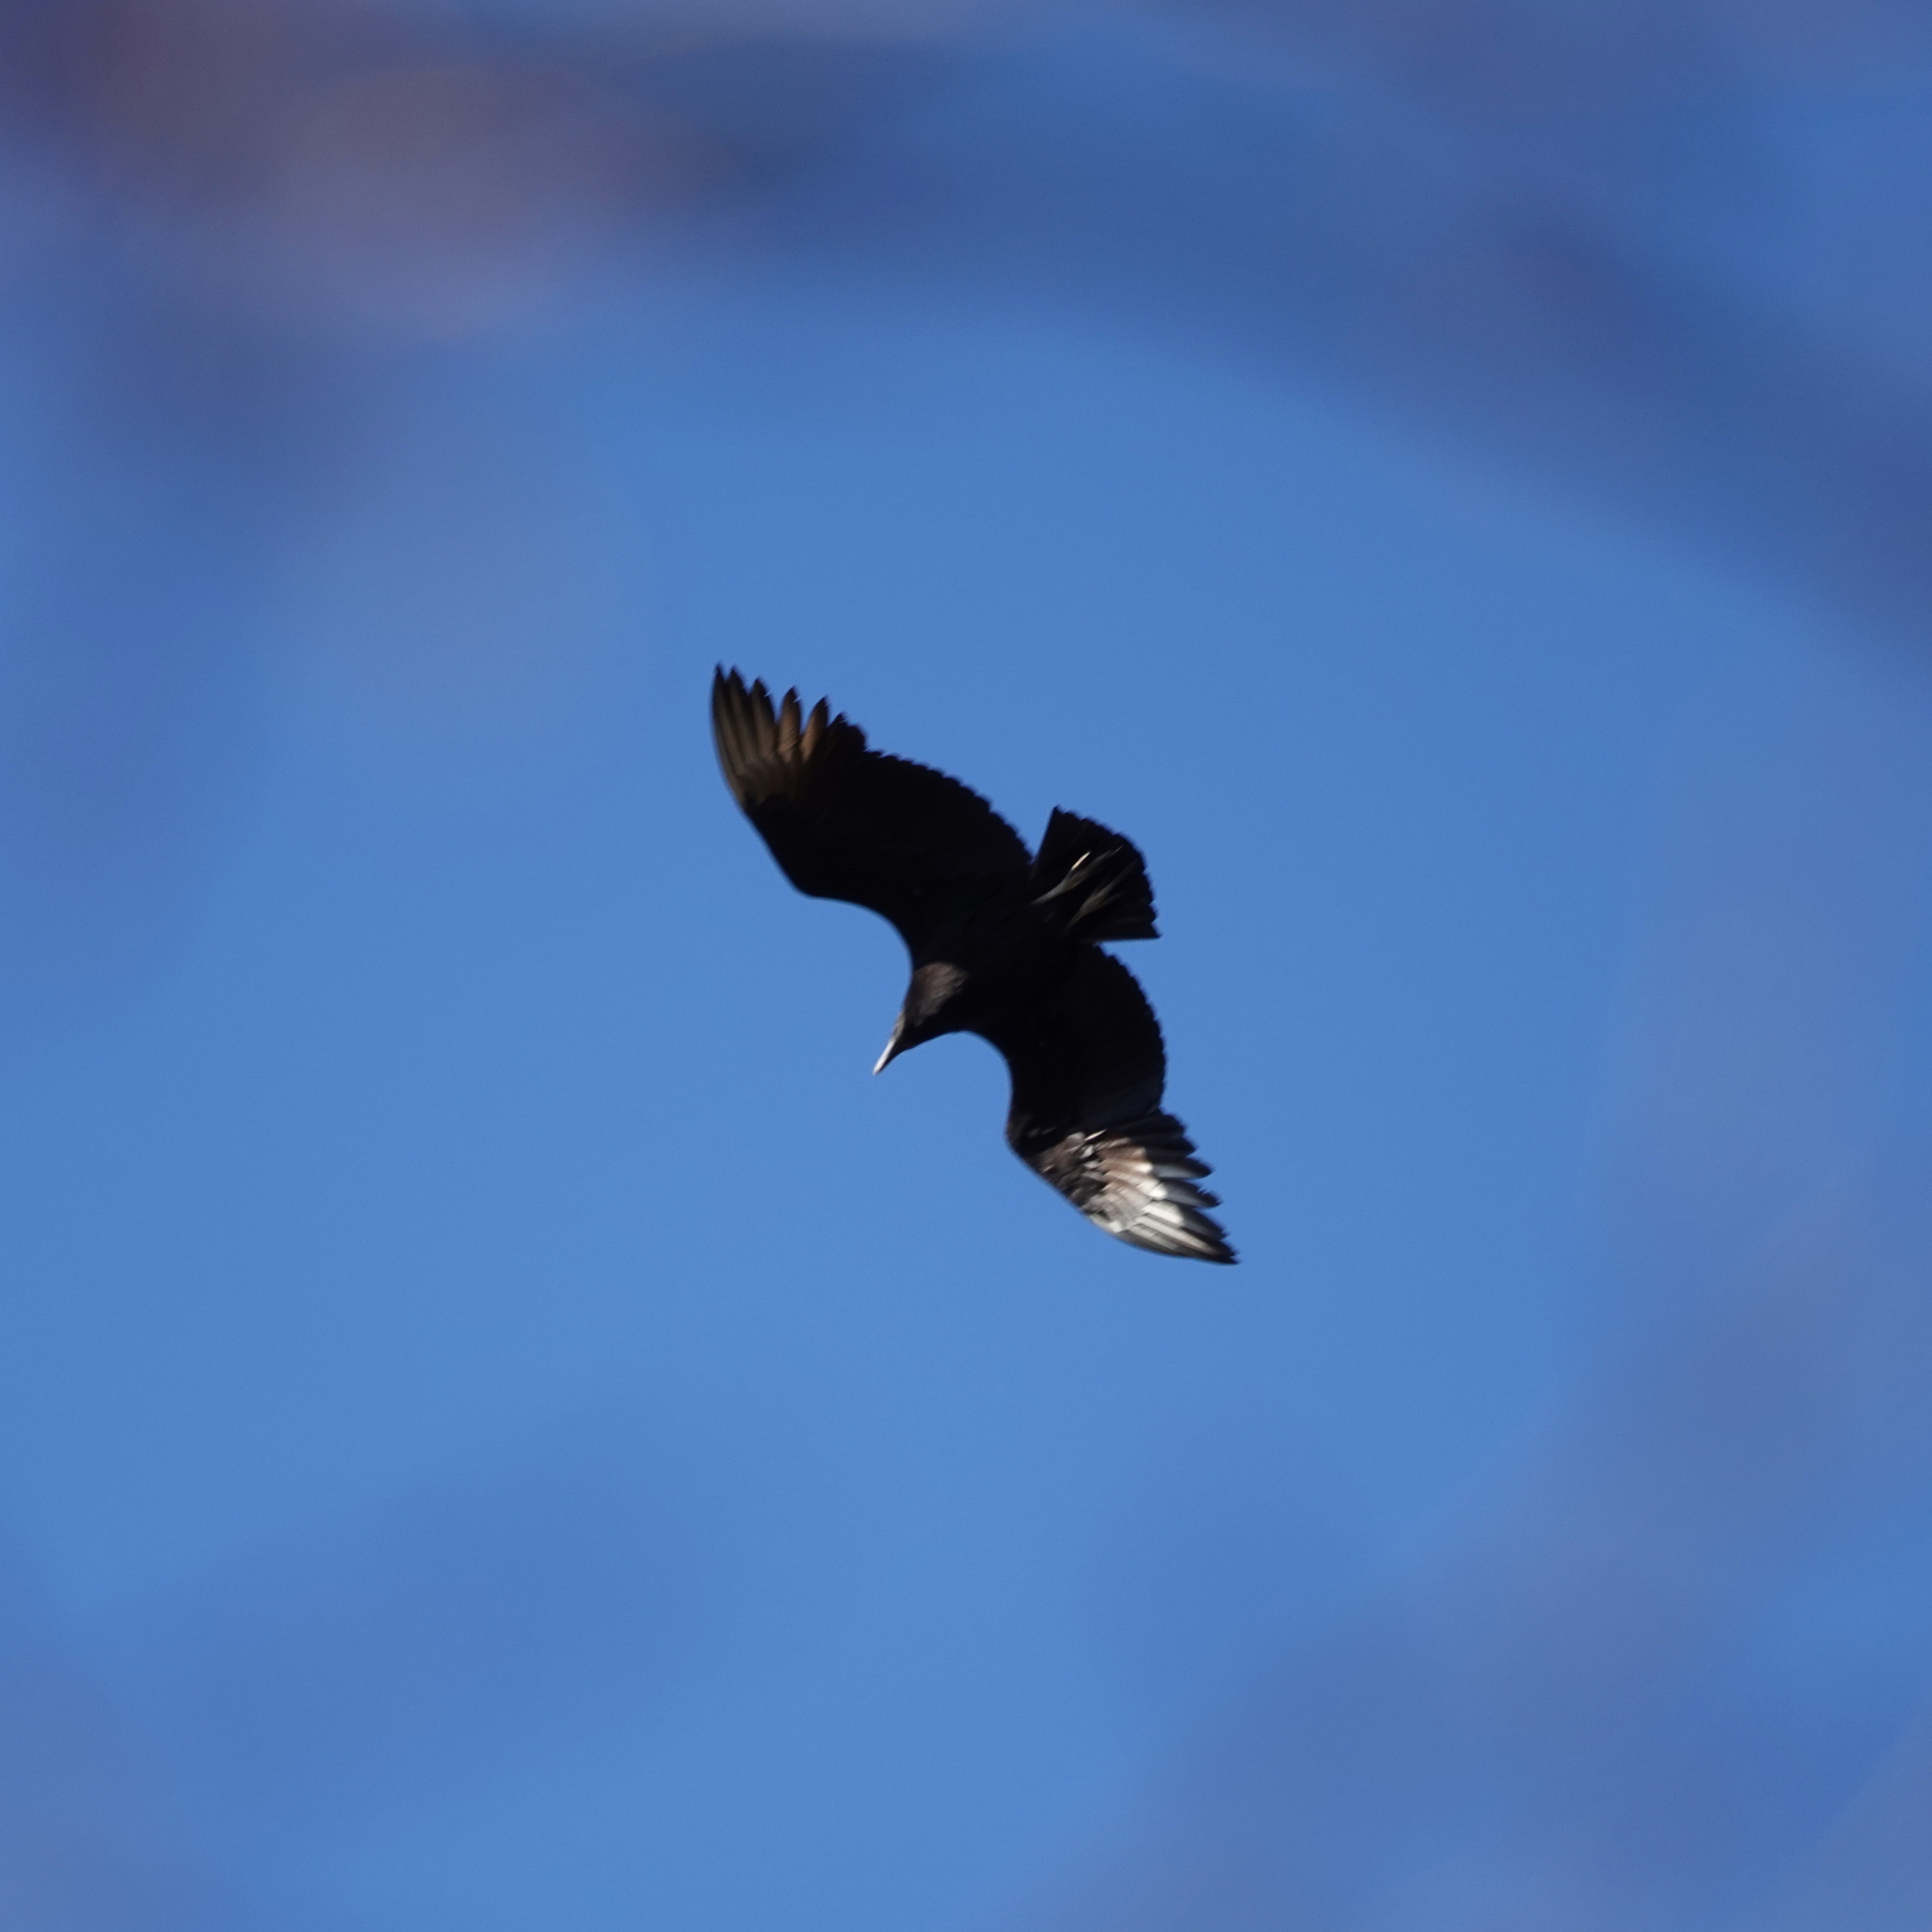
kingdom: Animalia
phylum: Chordata
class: Aves
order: Accipitriformes
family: Cathartidae
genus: Coragyps
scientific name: Coragyps atratus
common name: Black vulture
